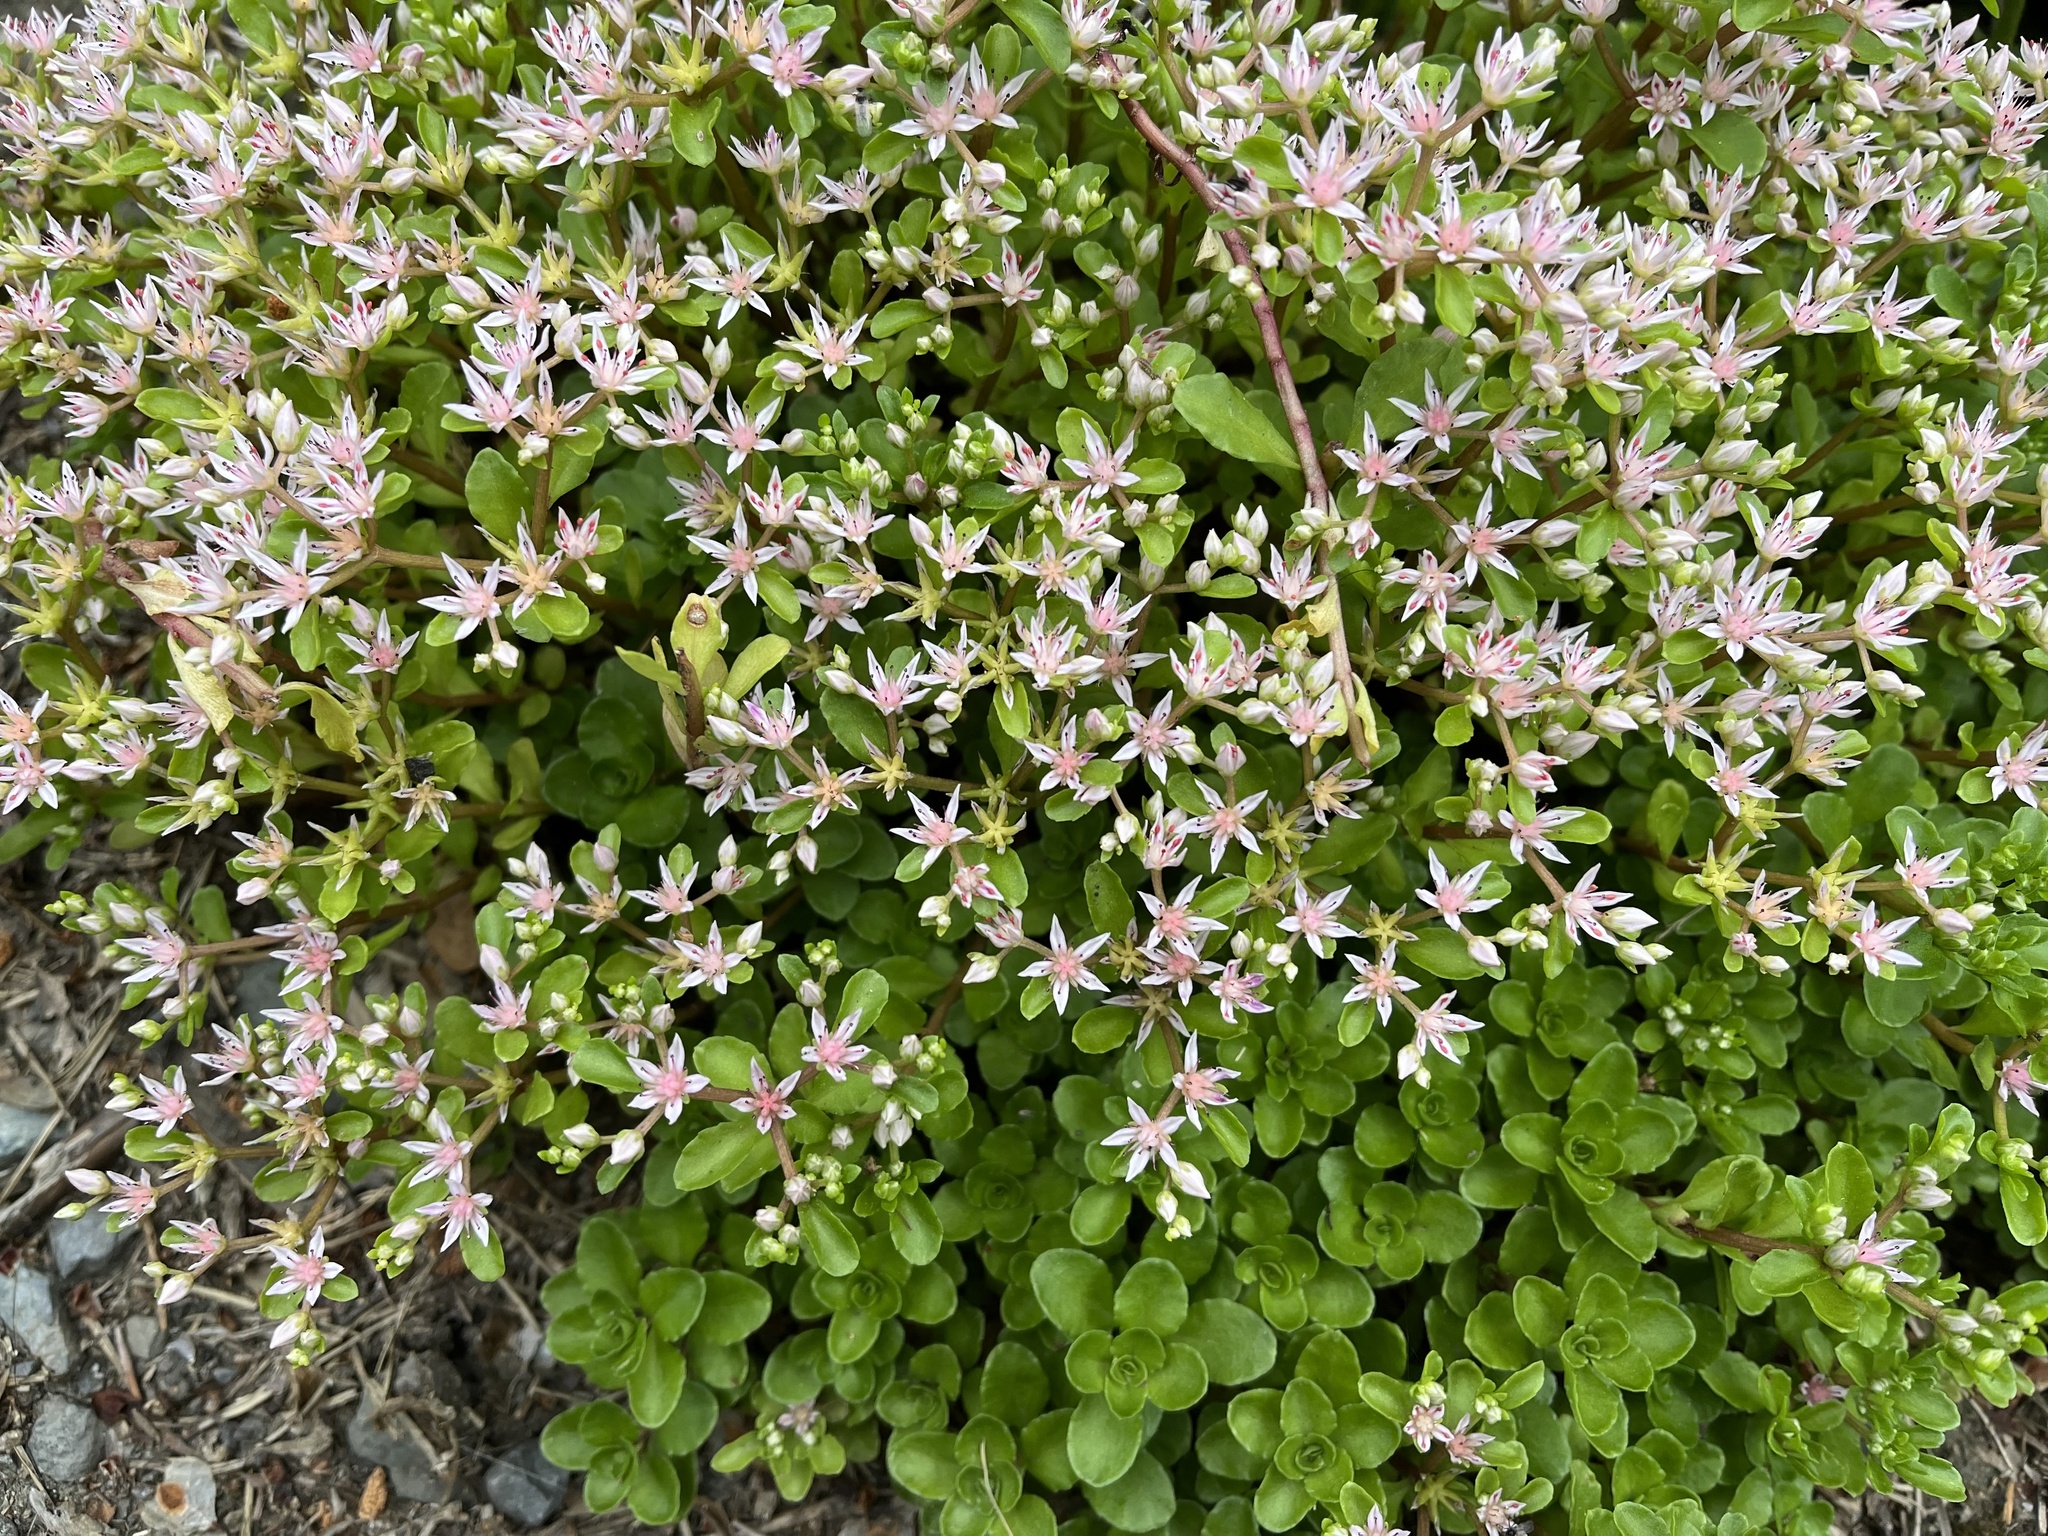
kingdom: Plantae
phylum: Tracheophyta
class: Magnoliopsida
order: Saxifragales
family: Crassulaceae
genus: Phedimus
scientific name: Phedimus spurius
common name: Caucasian stonecrop
